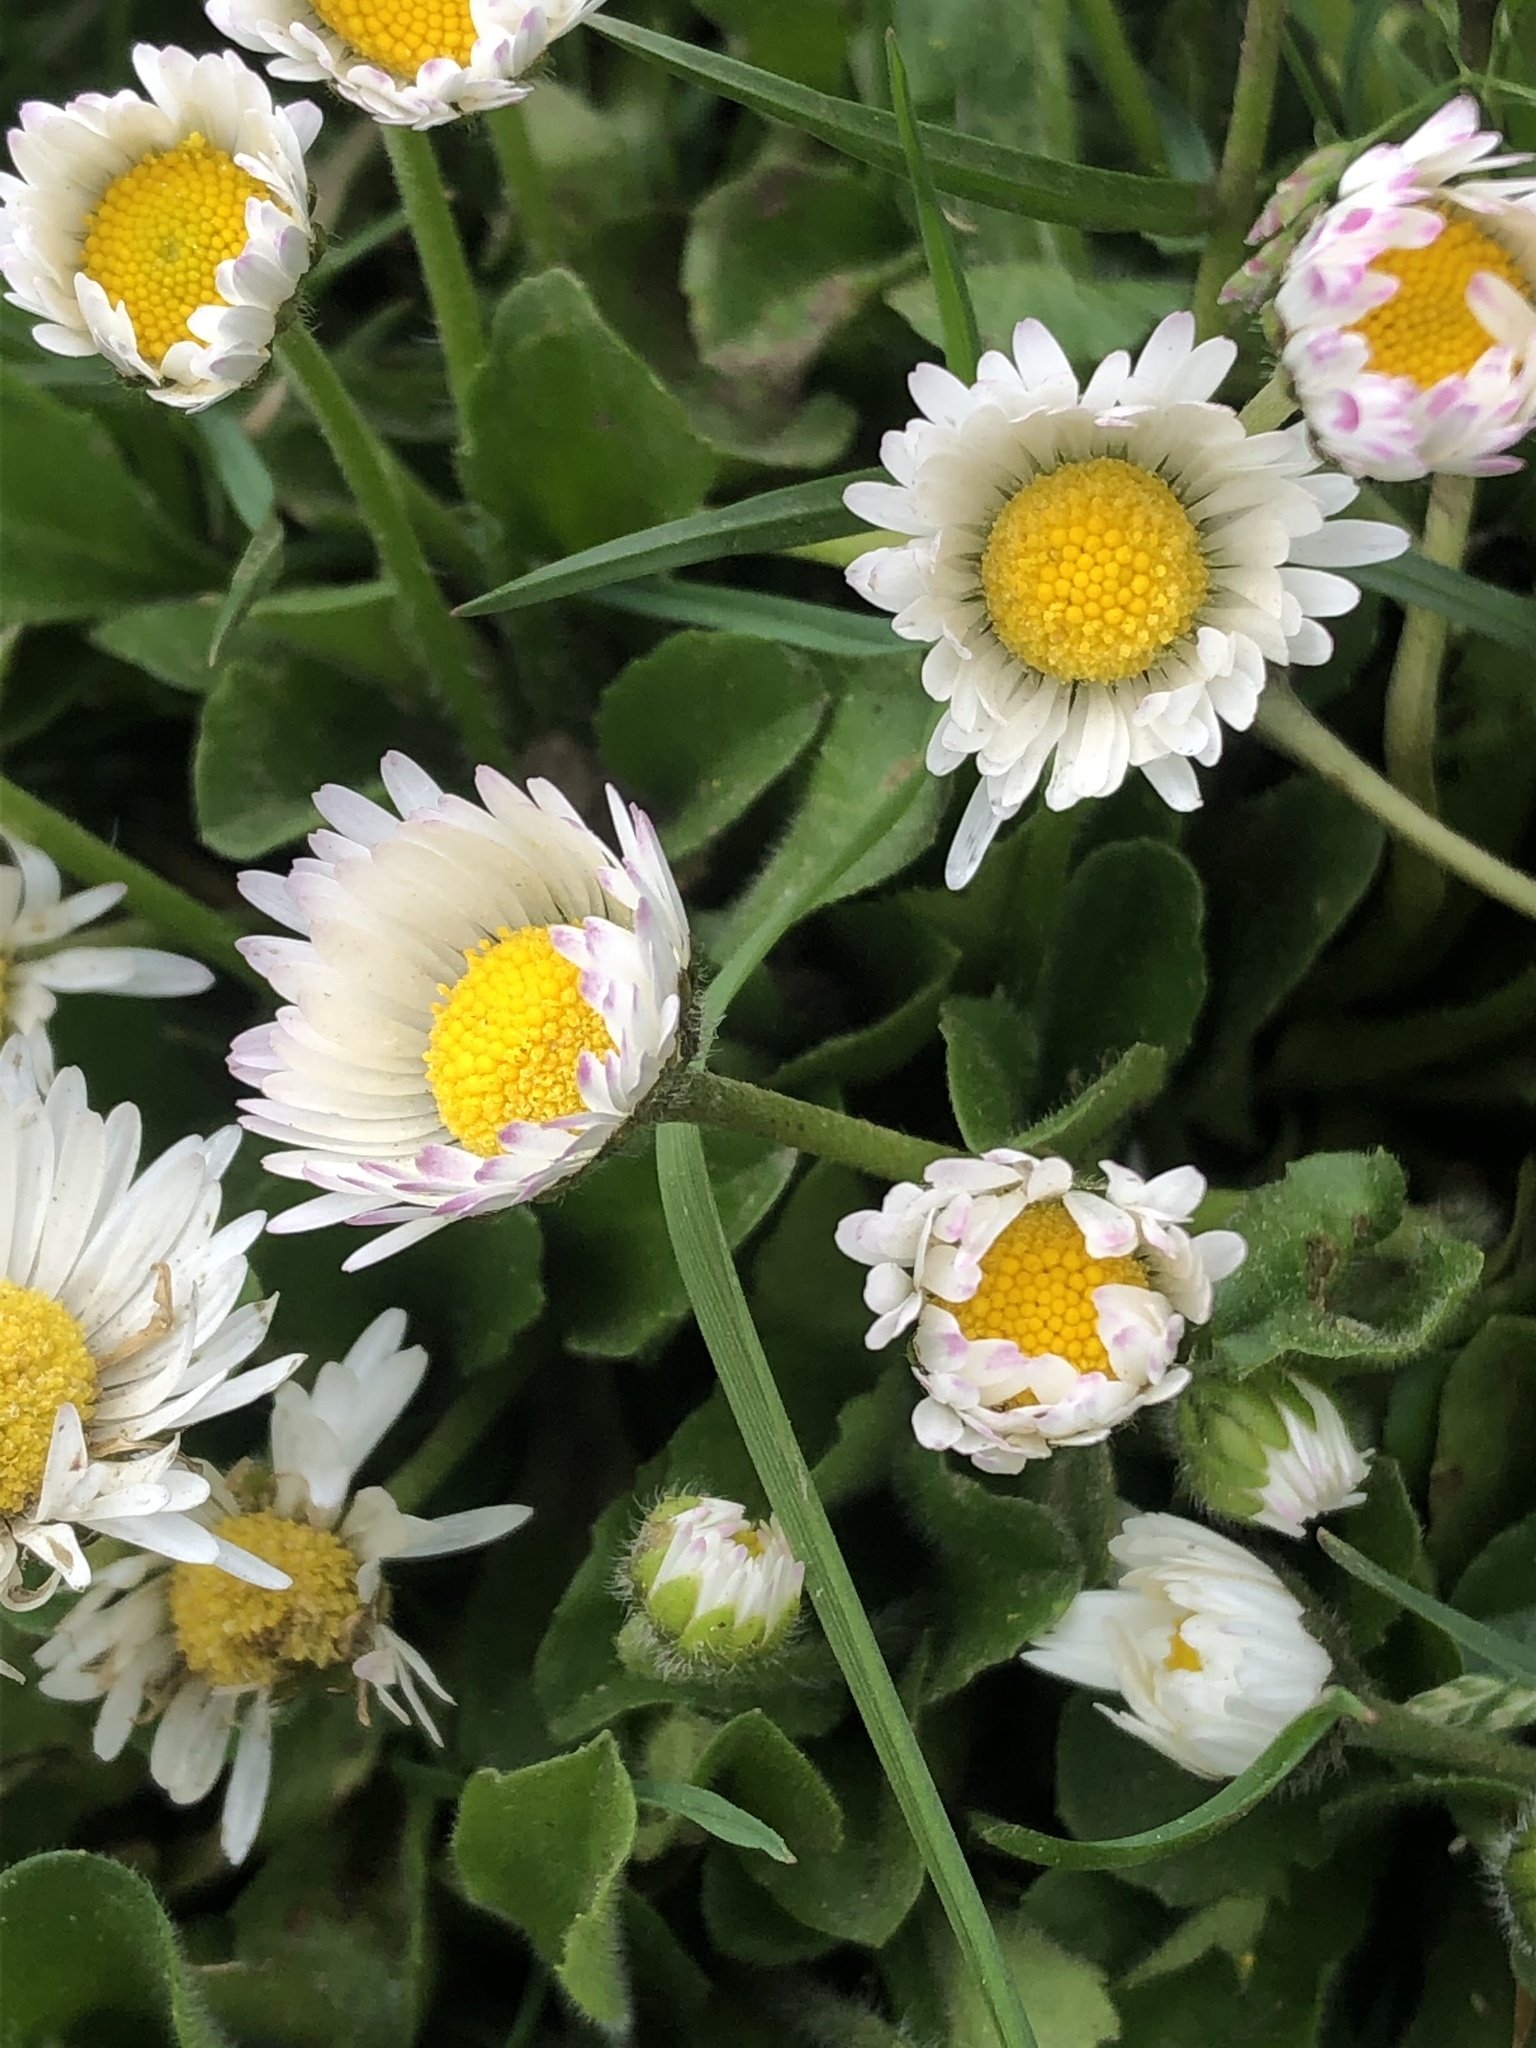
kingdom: Plantae
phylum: Tracheophyta
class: Magnoliopsida
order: Asterales
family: Asteraceae
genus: Bellis
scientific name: Bellis perennis
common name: Lawndaisy
